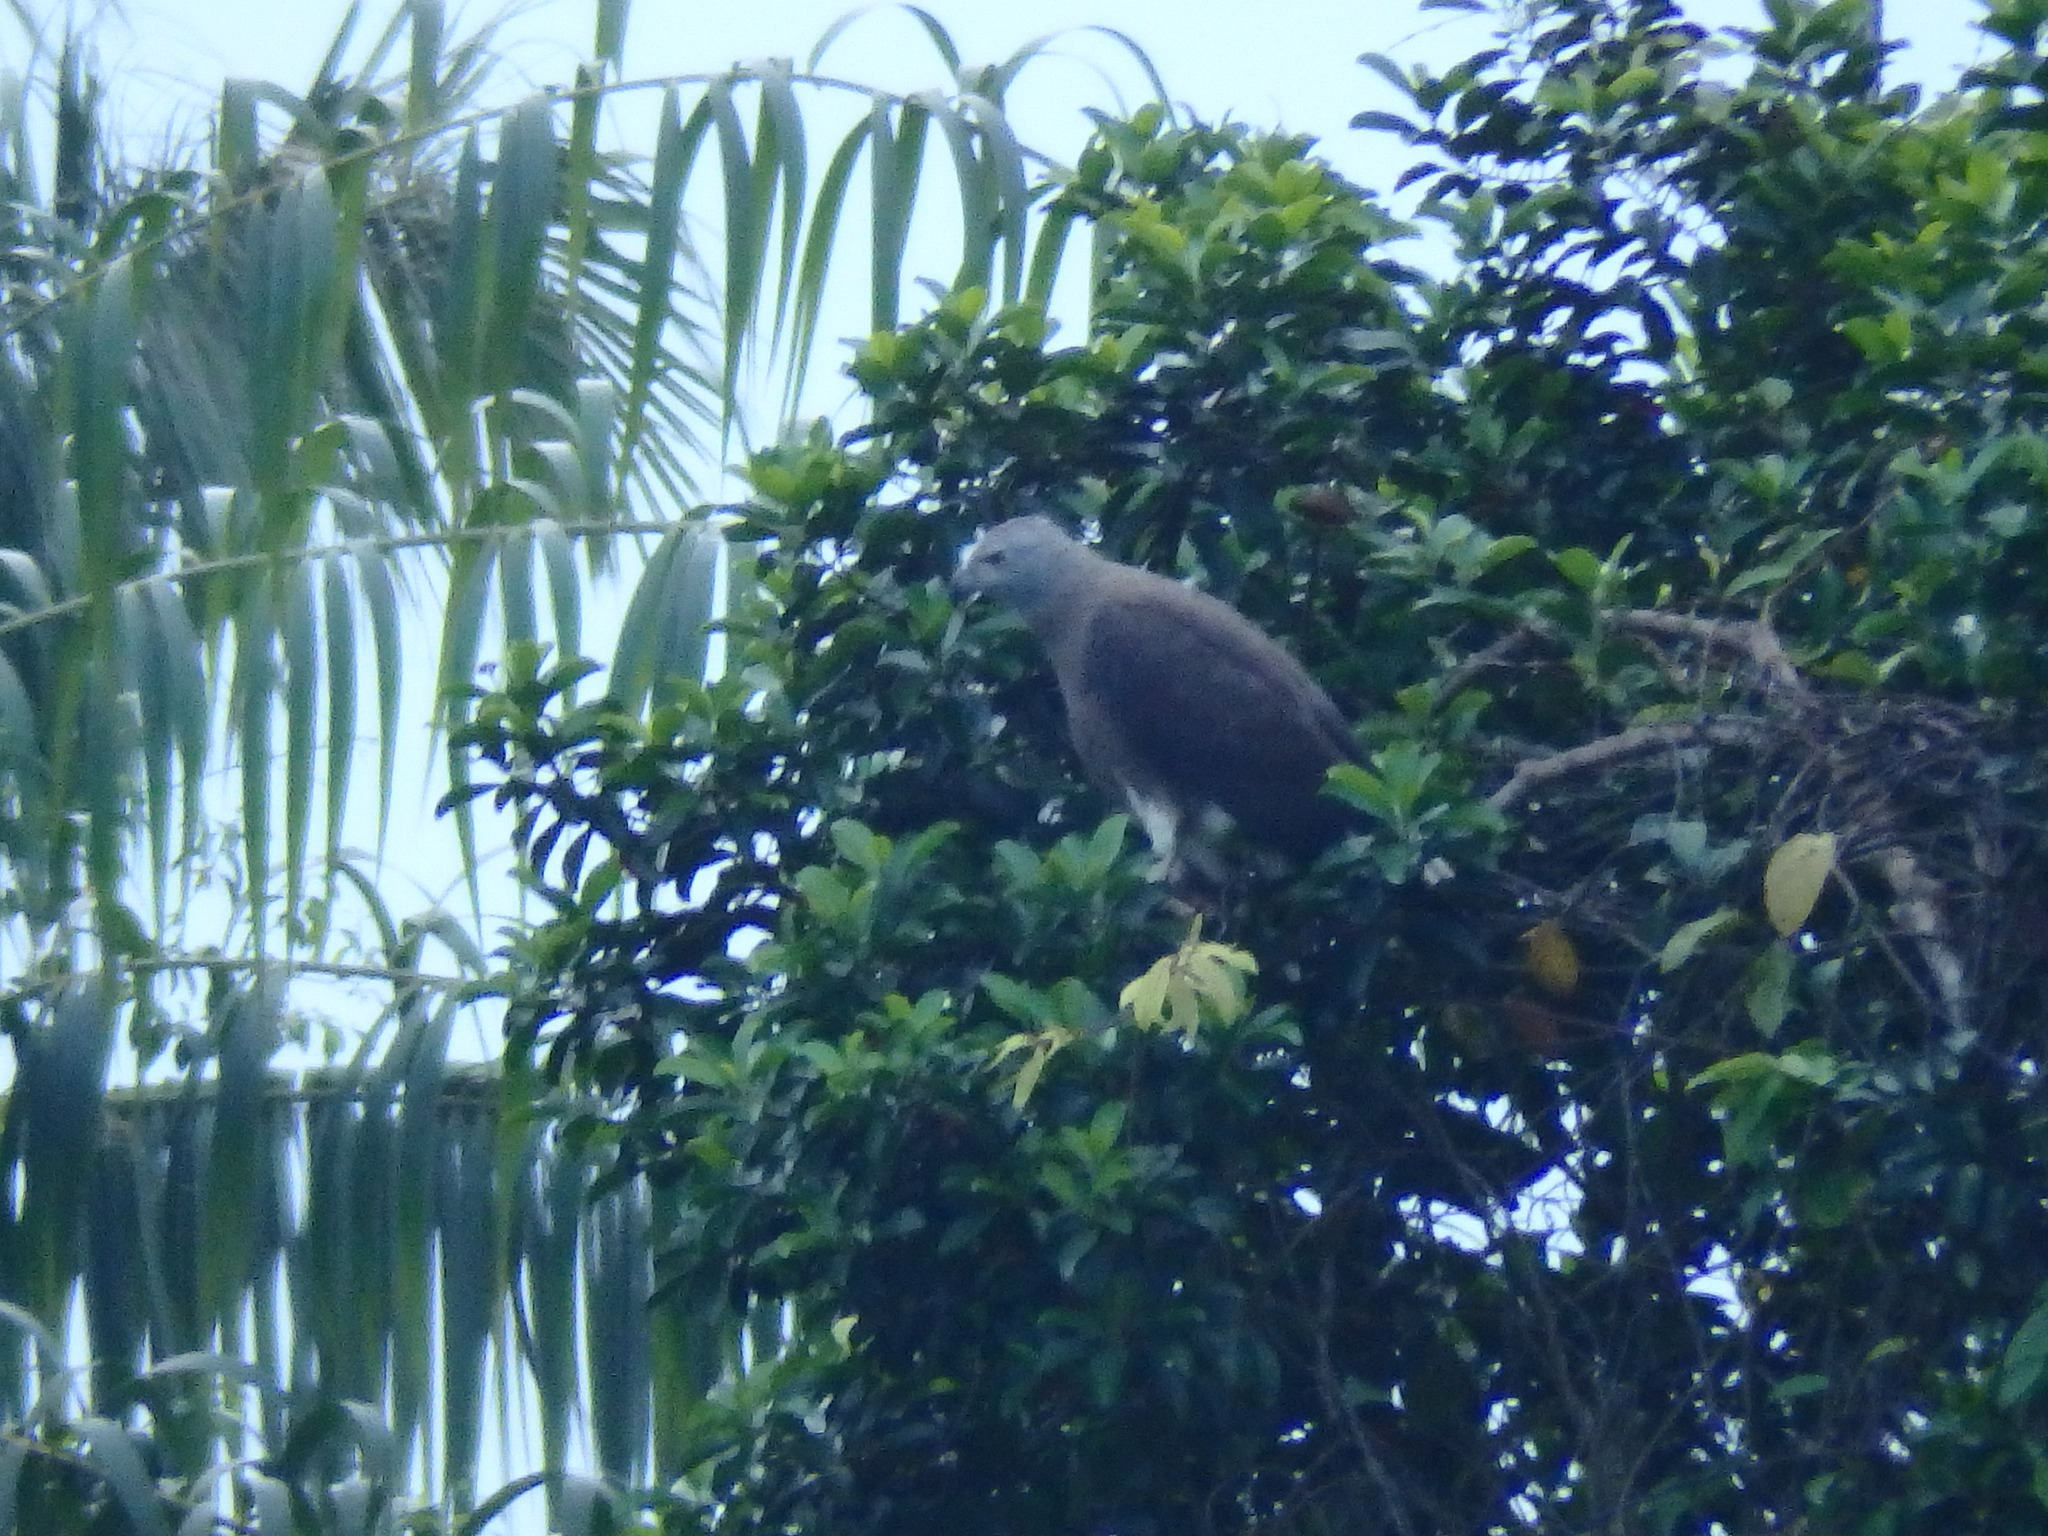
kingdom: Animalia
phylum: Chordata
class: Aves
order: Accipitriformes
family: Accipitridae
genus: Icthyophaga
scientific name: Icthyophaga ichthyaetus
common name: Grey-headed fish eagle
